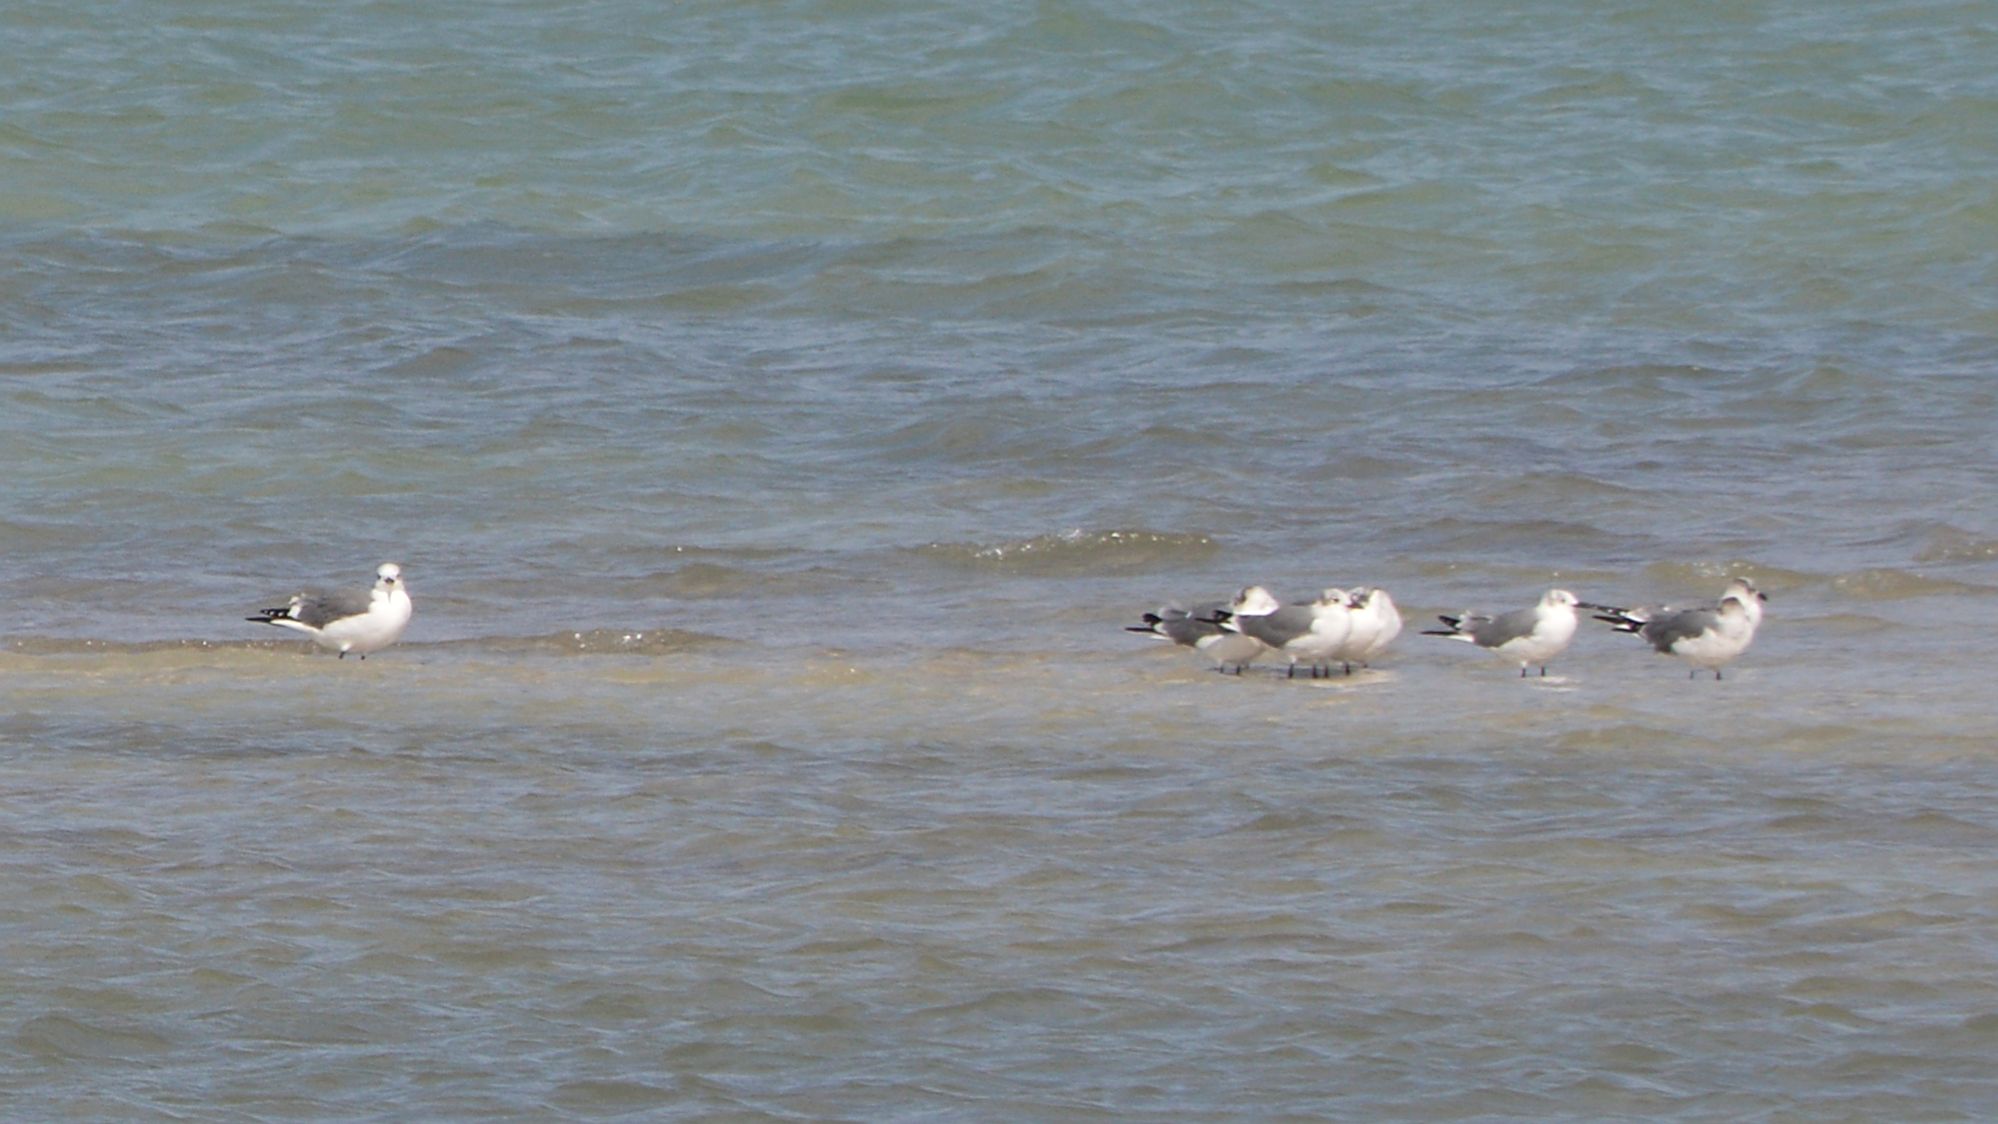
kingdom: Animalia
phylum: Chordata
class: Aves
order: Charadriiformes
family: Laridae
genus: Leucophaeus
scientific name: Leucophaeus atricilla
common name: Laughing gull
